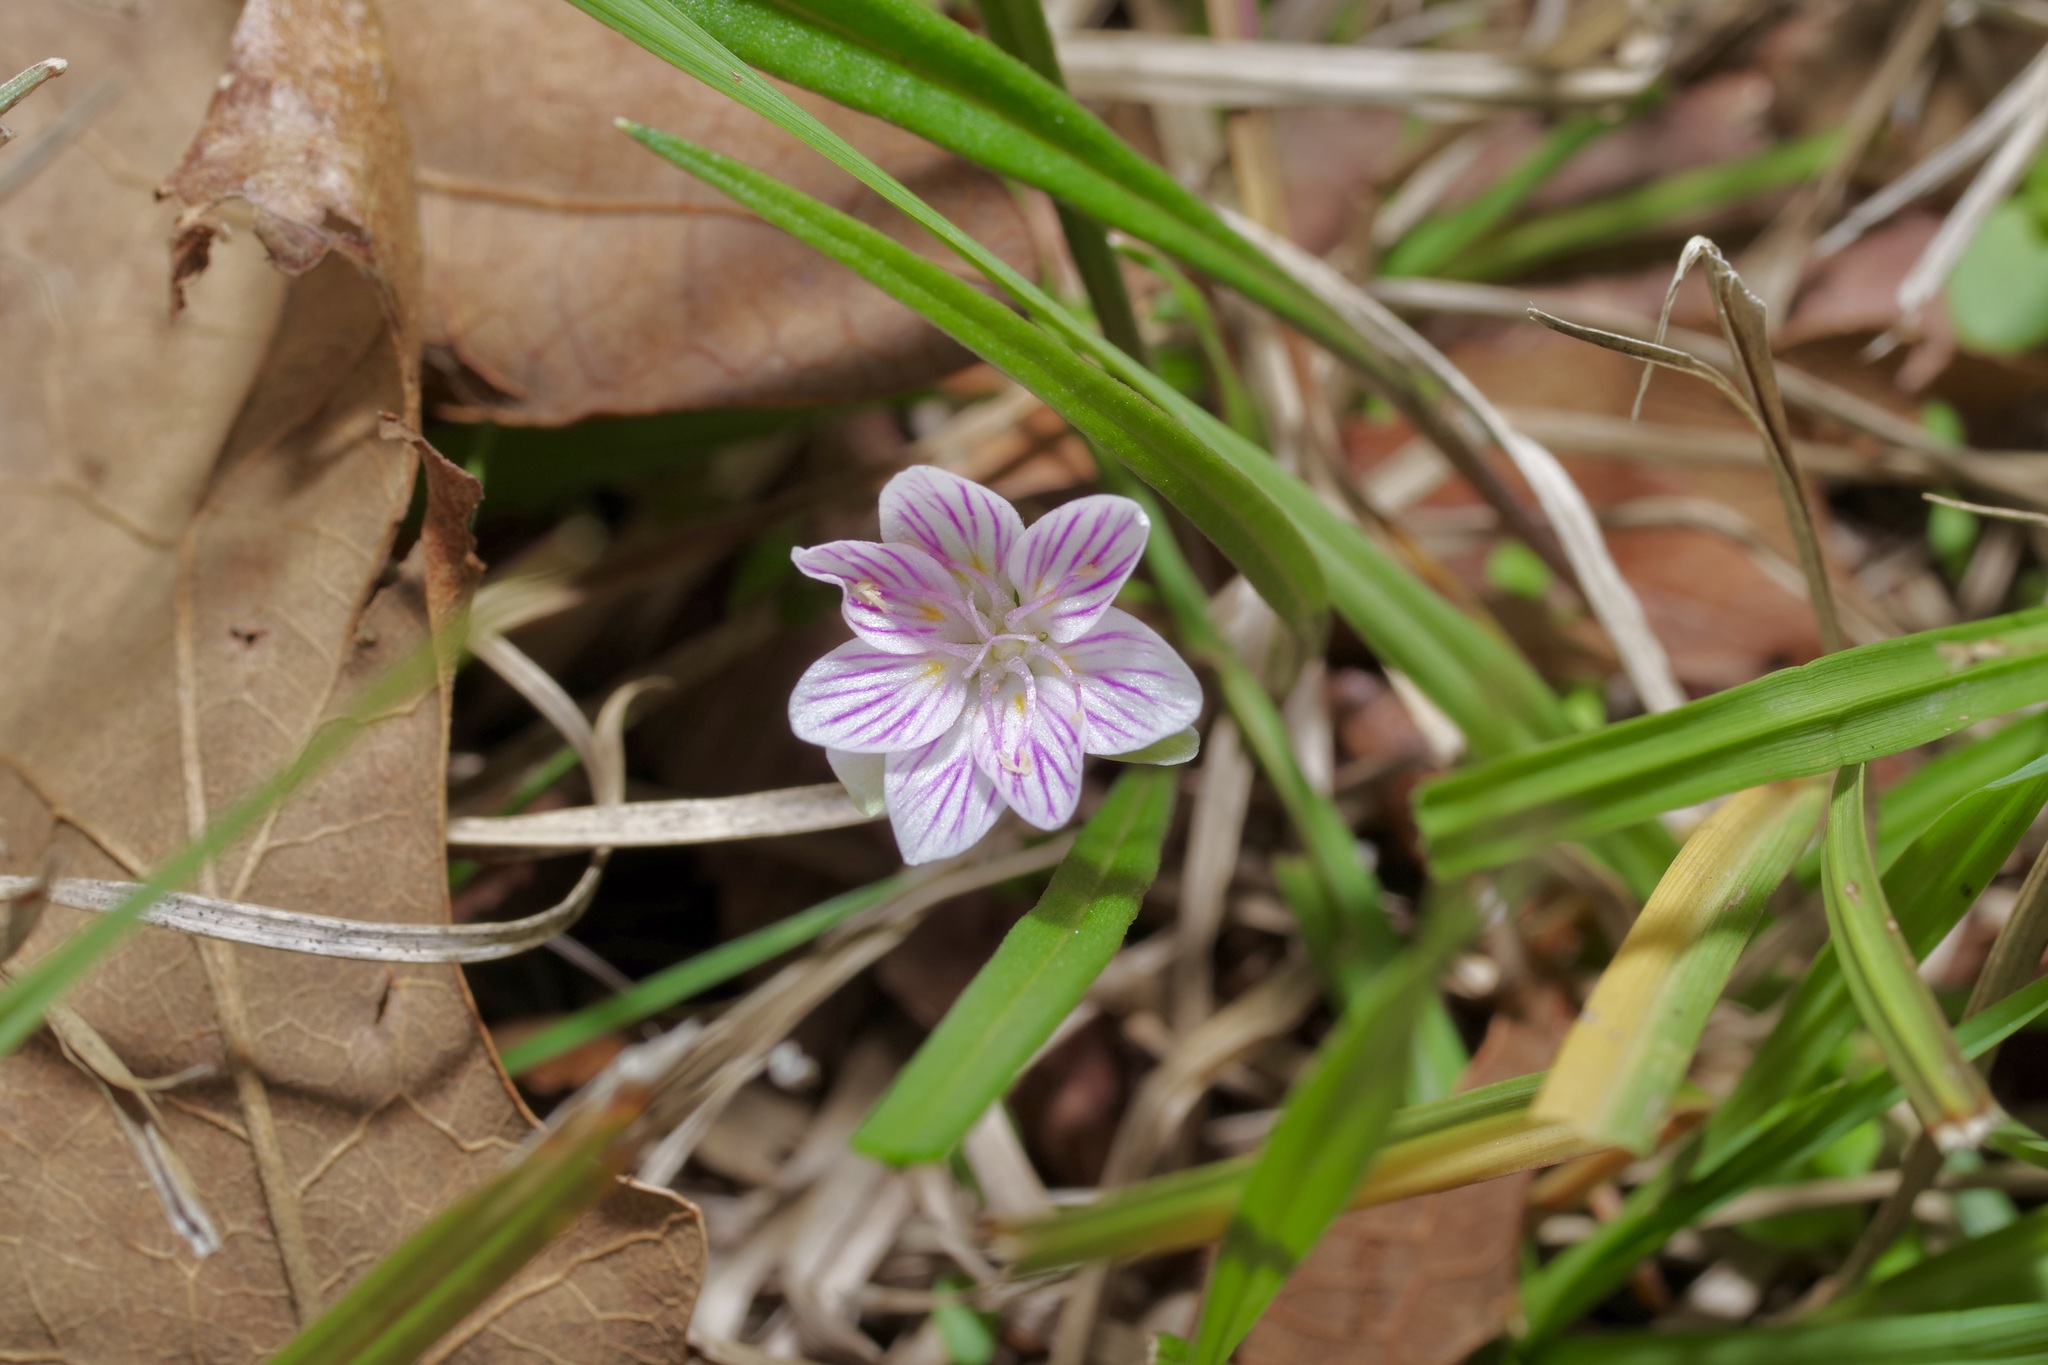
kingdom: Plantae
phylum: Tracheophyta
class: Magnoliopsida
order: Caryophyllales
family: Montiaceae
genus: Claytonia
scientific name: Claytonia virginica
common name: Virginia springbeauty
